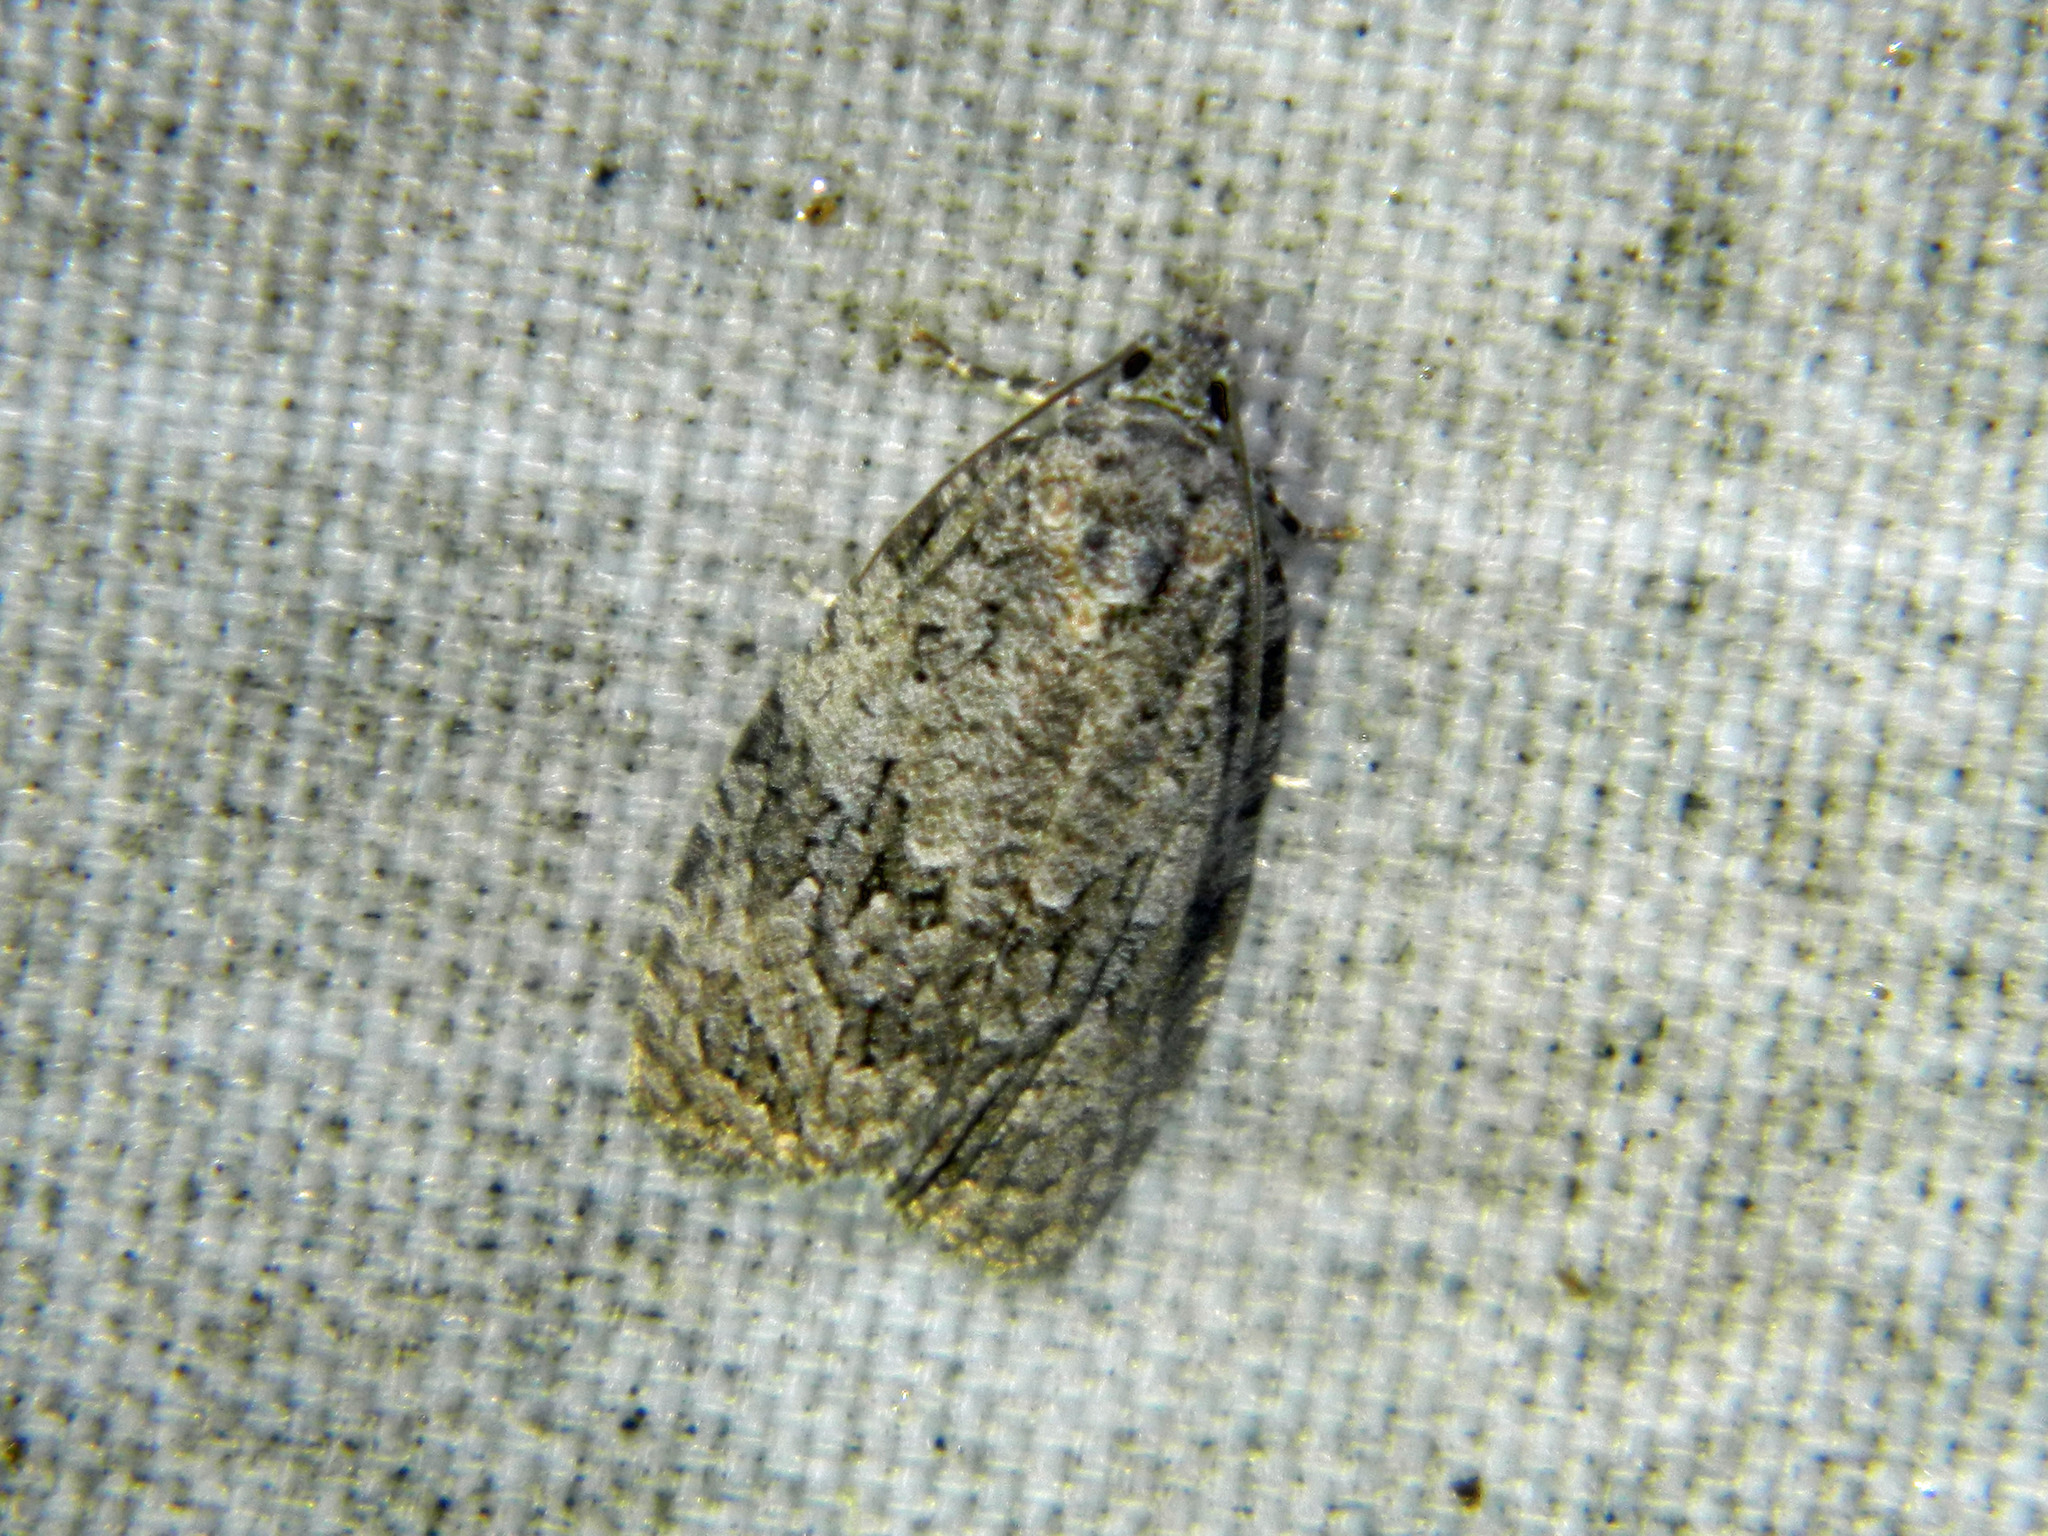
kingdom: Animalia
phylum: Arthropoda
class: Insecta
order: Lepidoptera
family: Tortricidae
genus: Apotomis
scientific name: Apotomis removana
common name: Green aspen leafroller
